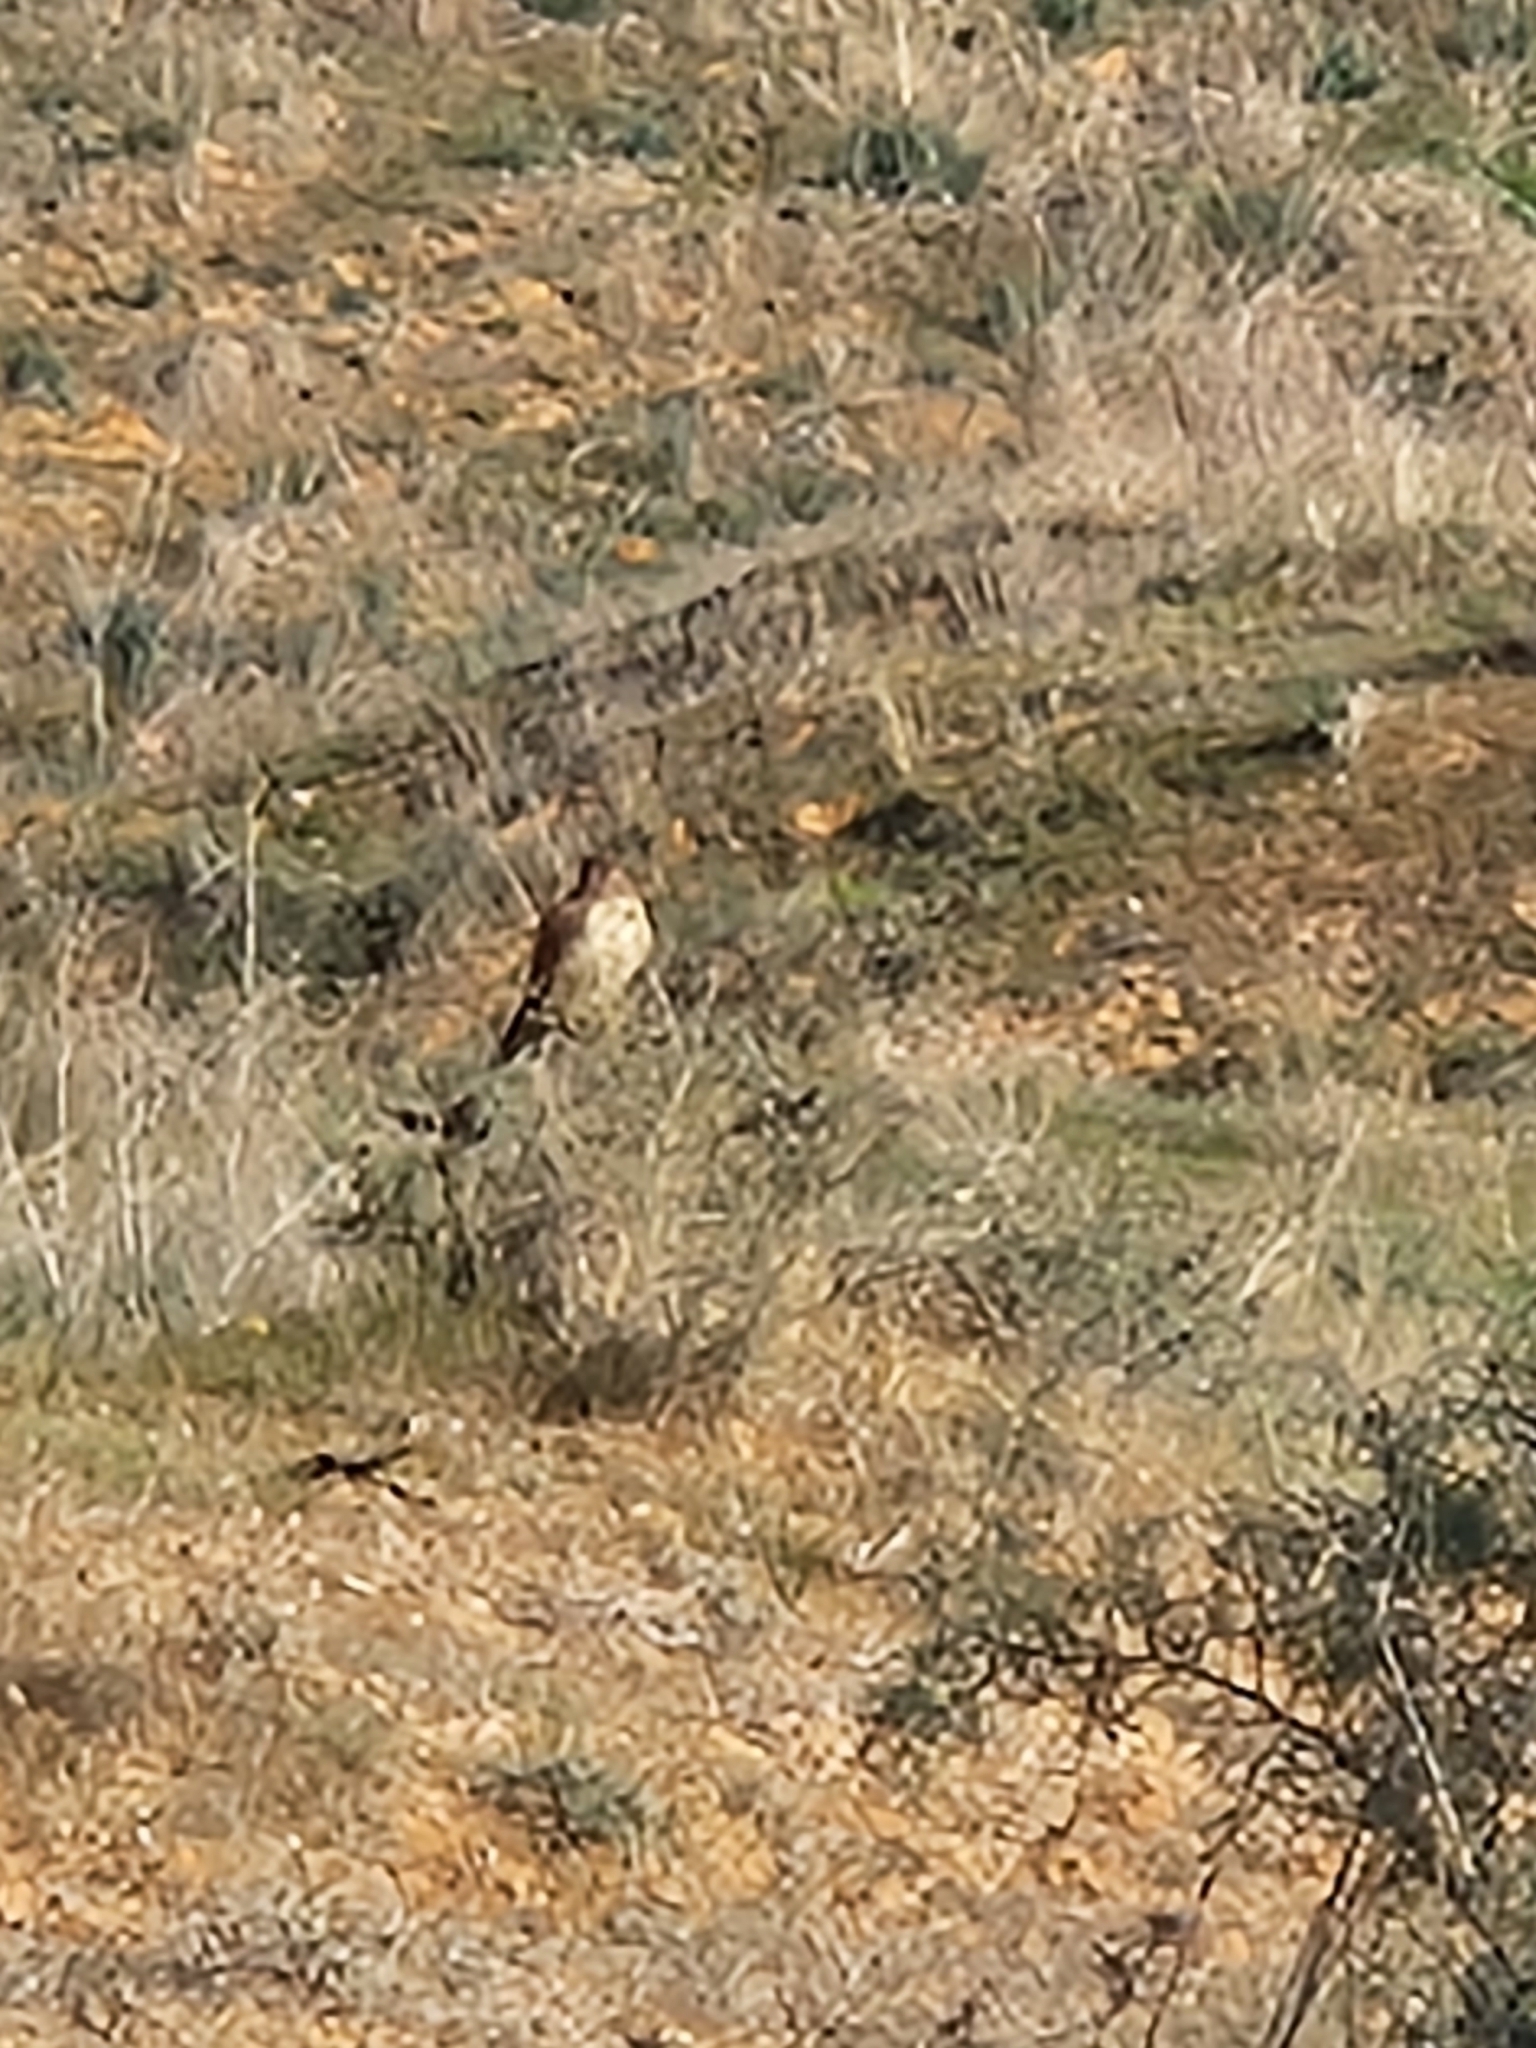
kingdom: Animalia
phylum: Chordata
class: Aves
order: Falconiformes
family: Falconidae
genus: Falco
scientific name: Falco tinnunculus
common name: Common kestrel
